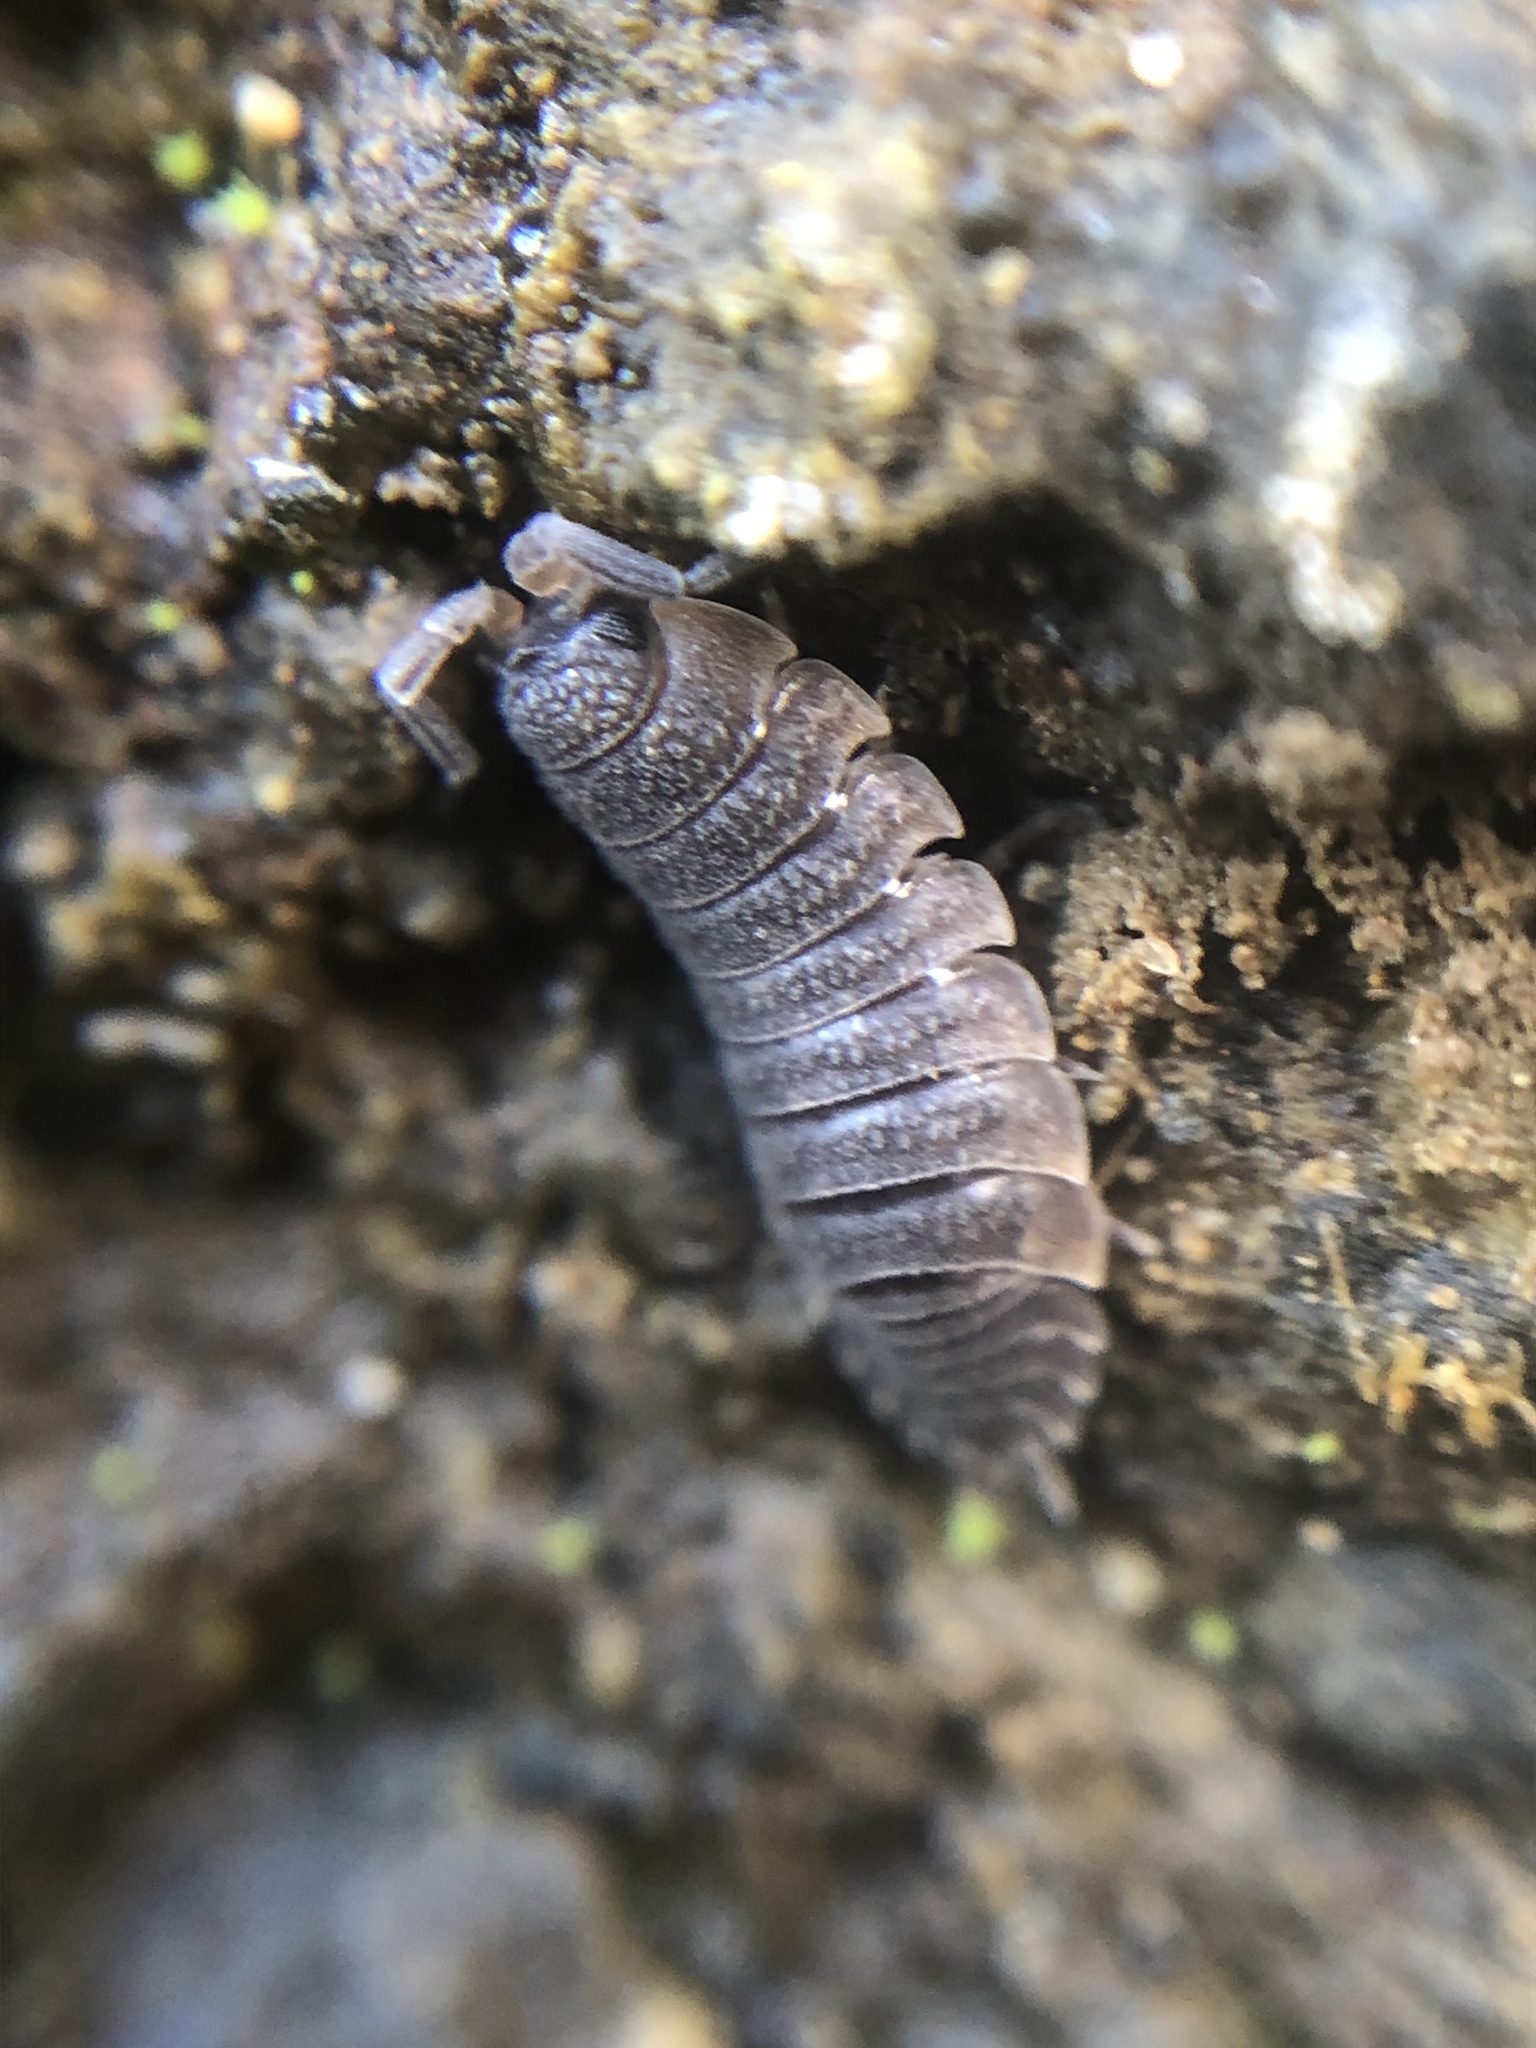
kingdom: Animalia
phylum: Arthropoda
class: Malacostraca
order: Isopoda
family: Porcellionidae
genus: Porcellio
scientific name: Porcellio scaber
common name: Common rough woodlouse
